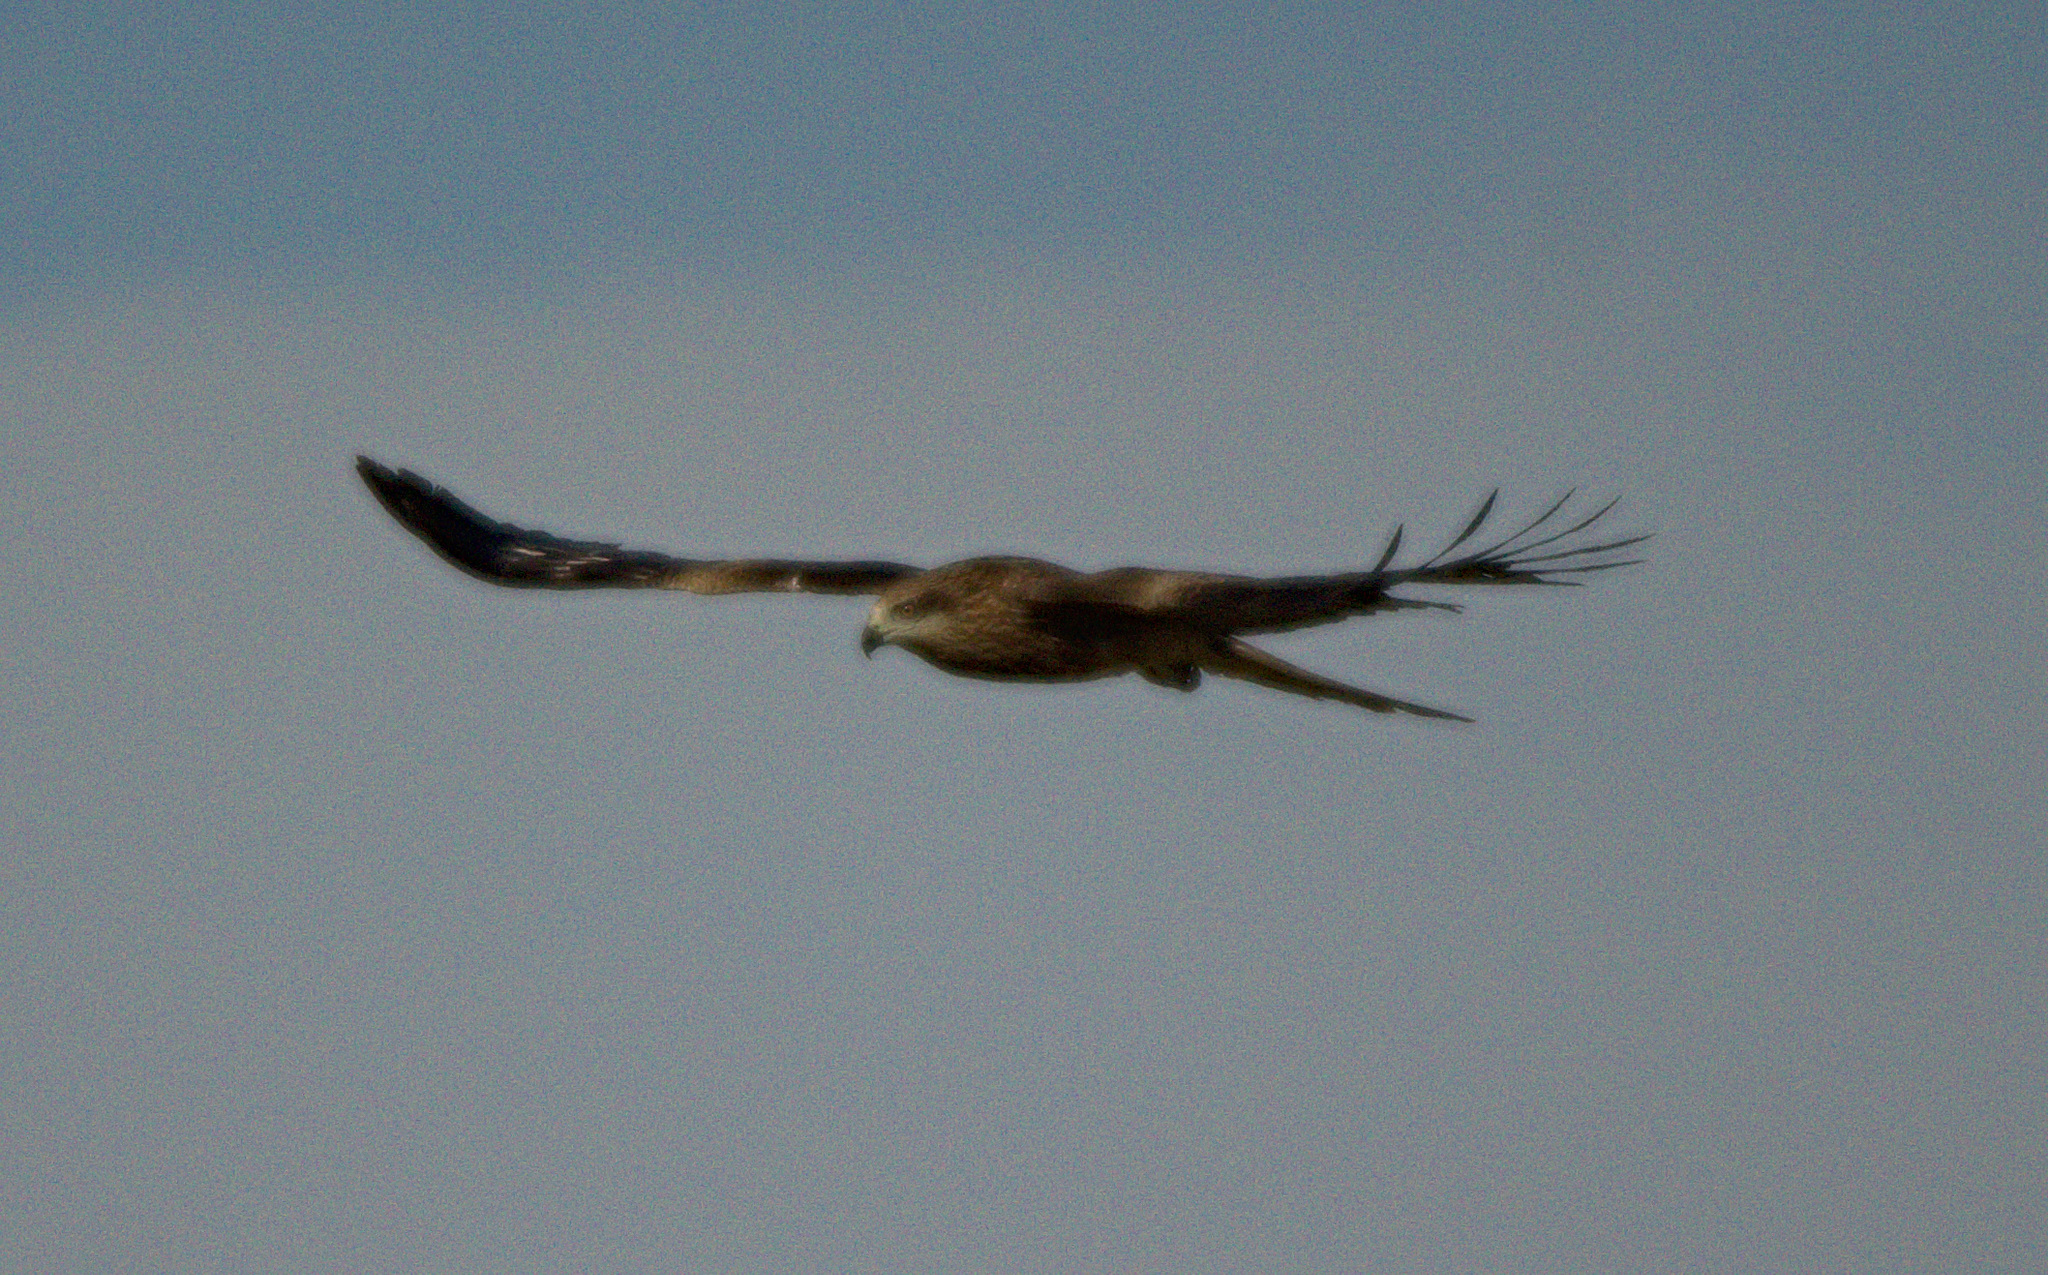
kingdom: Animalia
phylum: Chordata
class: Aves
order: Accipitriformes
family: Accipitridae
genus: Milvus
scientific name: Milvus migrans
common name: Black kite
